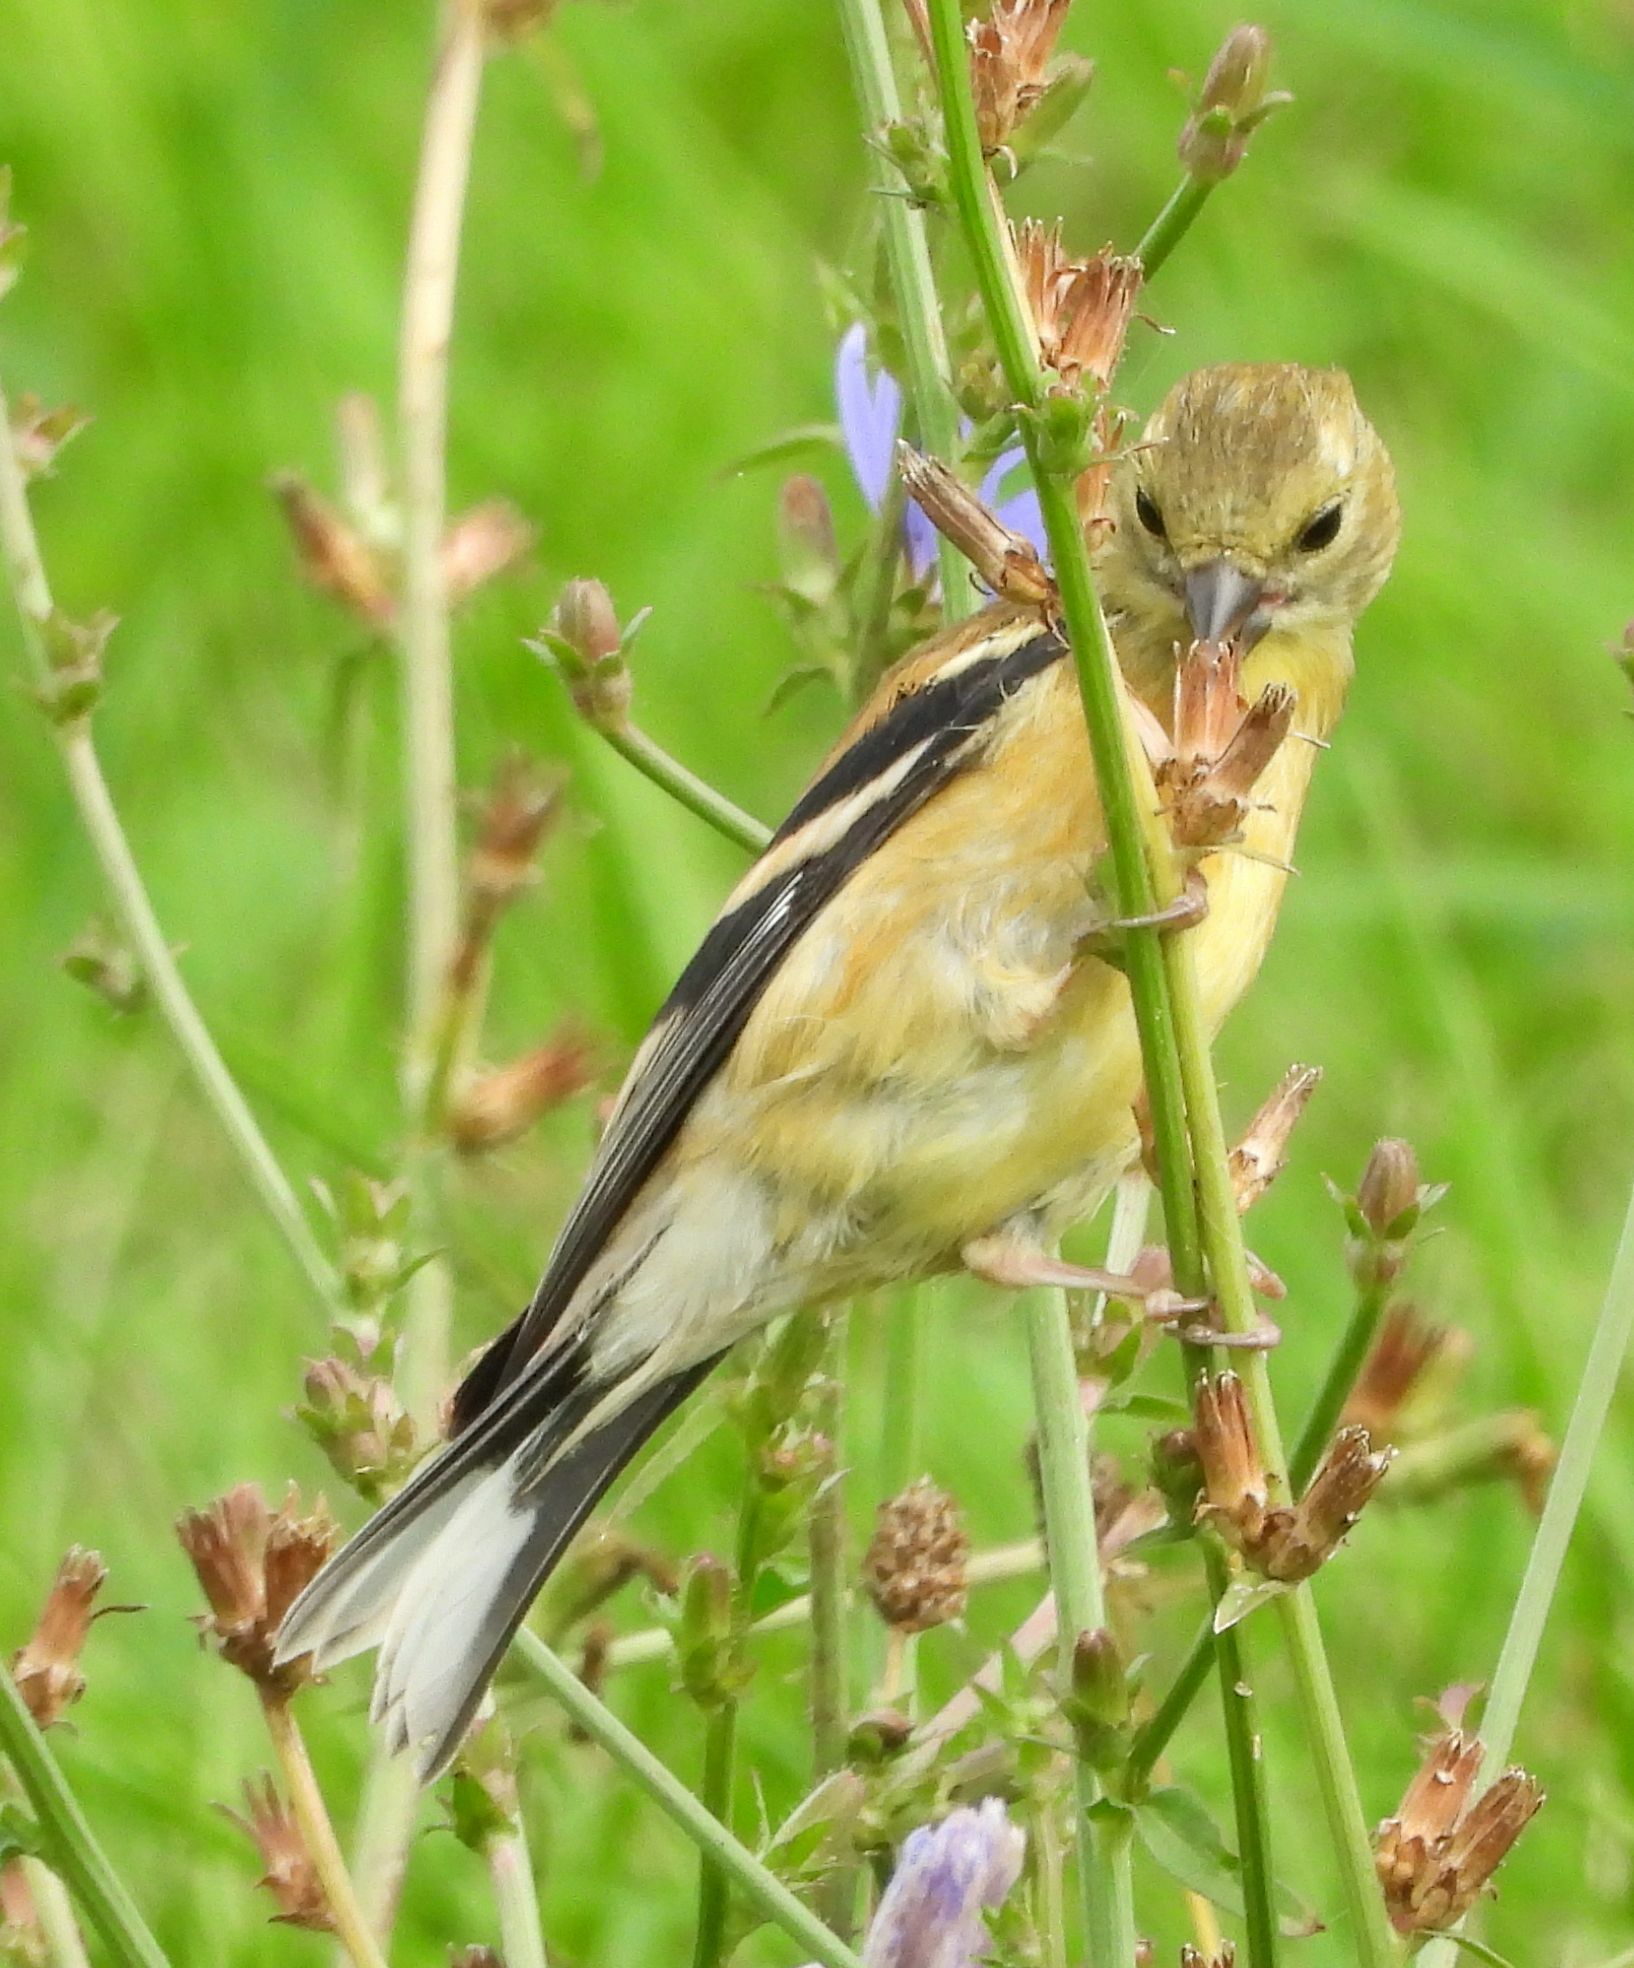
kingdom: Animalia
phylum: Chordata
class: Aves
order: Passeriformes
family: Fringillidae
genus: Spinus
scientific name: Spinus tristis
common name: American goldfinch
